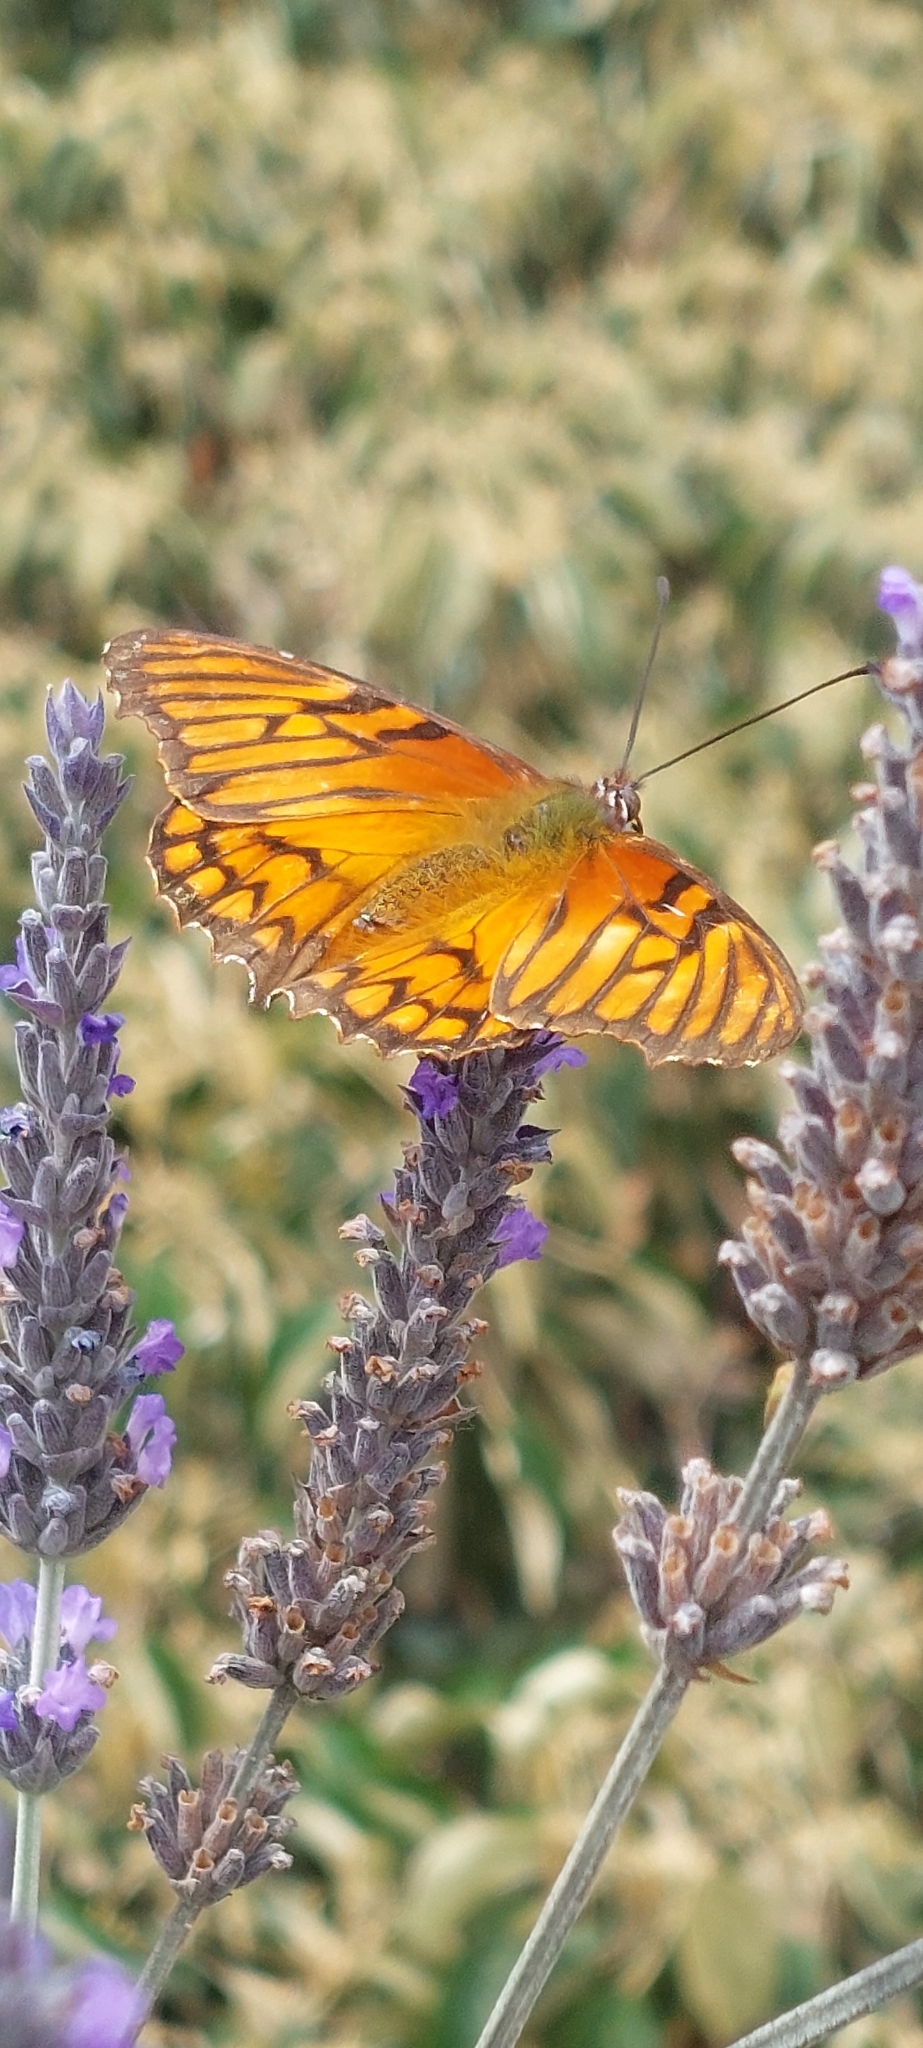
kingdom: Animalia
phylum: Arthropoda
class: Insecta
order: Lepidoptera
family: Nymphalidae
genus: Dione
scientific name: Dione glycera
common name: Andean silverspot
